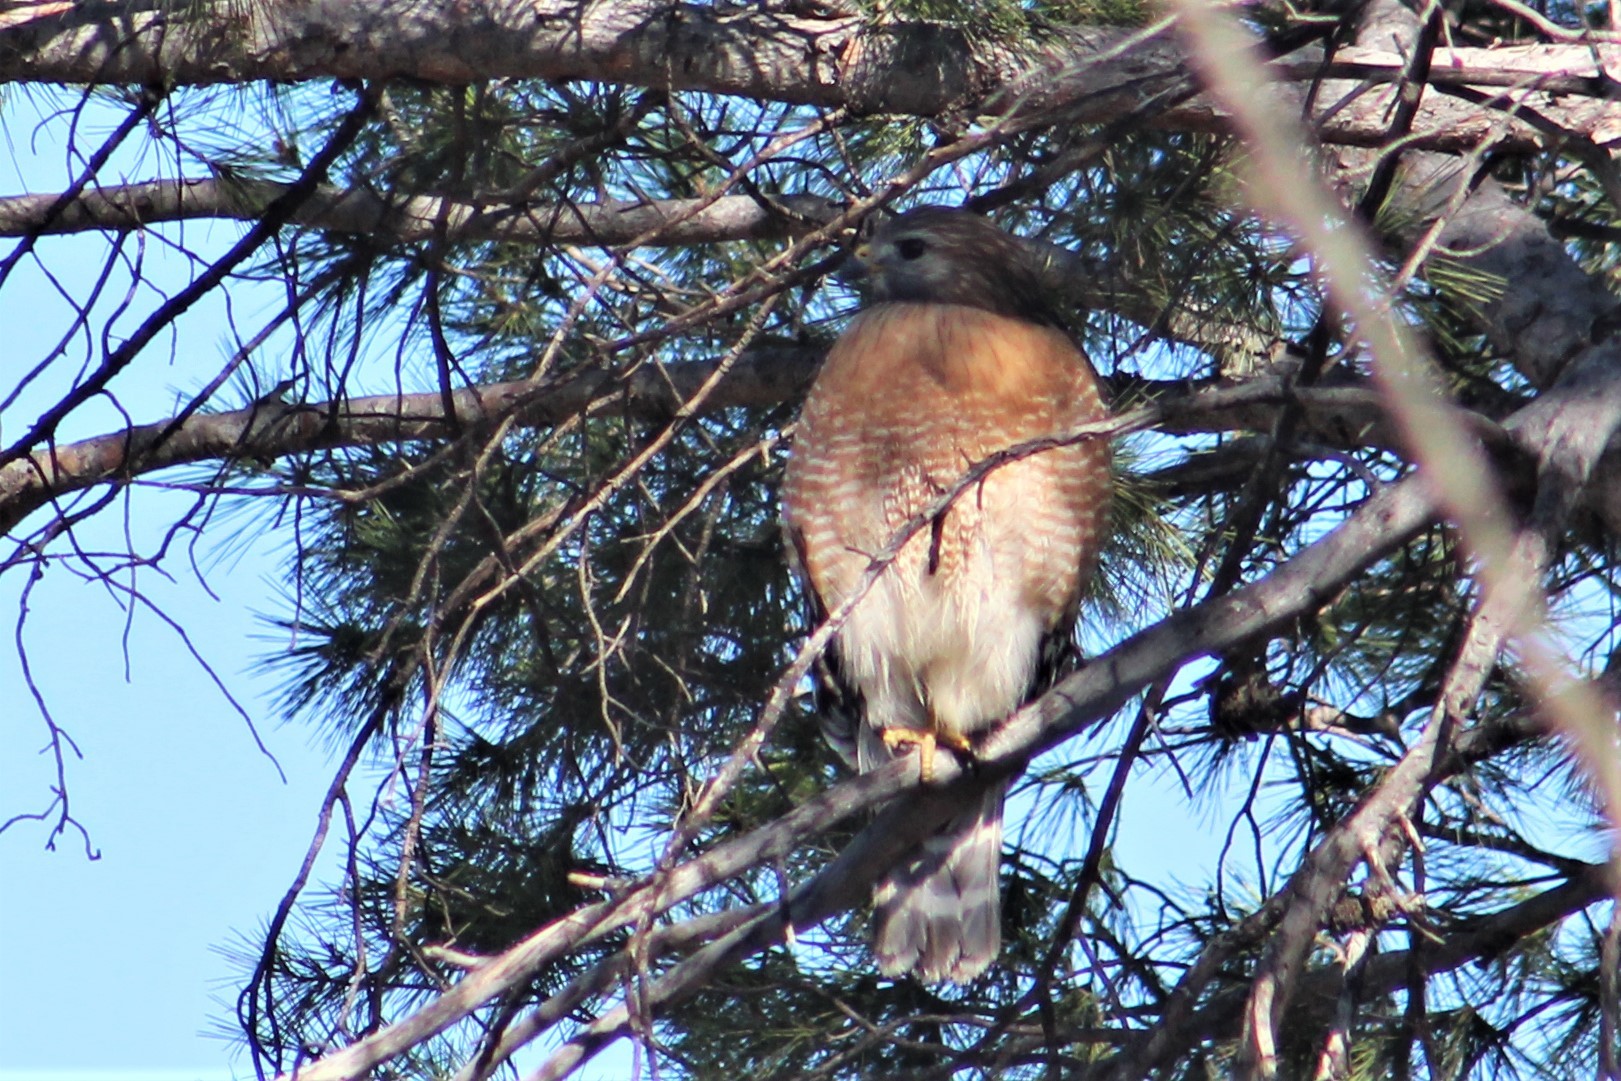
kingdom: Animalia
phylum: Chordata
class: Aves
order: Accipitriformes
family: Accipitridae
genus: Buteo
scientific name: Buteo lineatus
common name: Red-shouldered hawk
